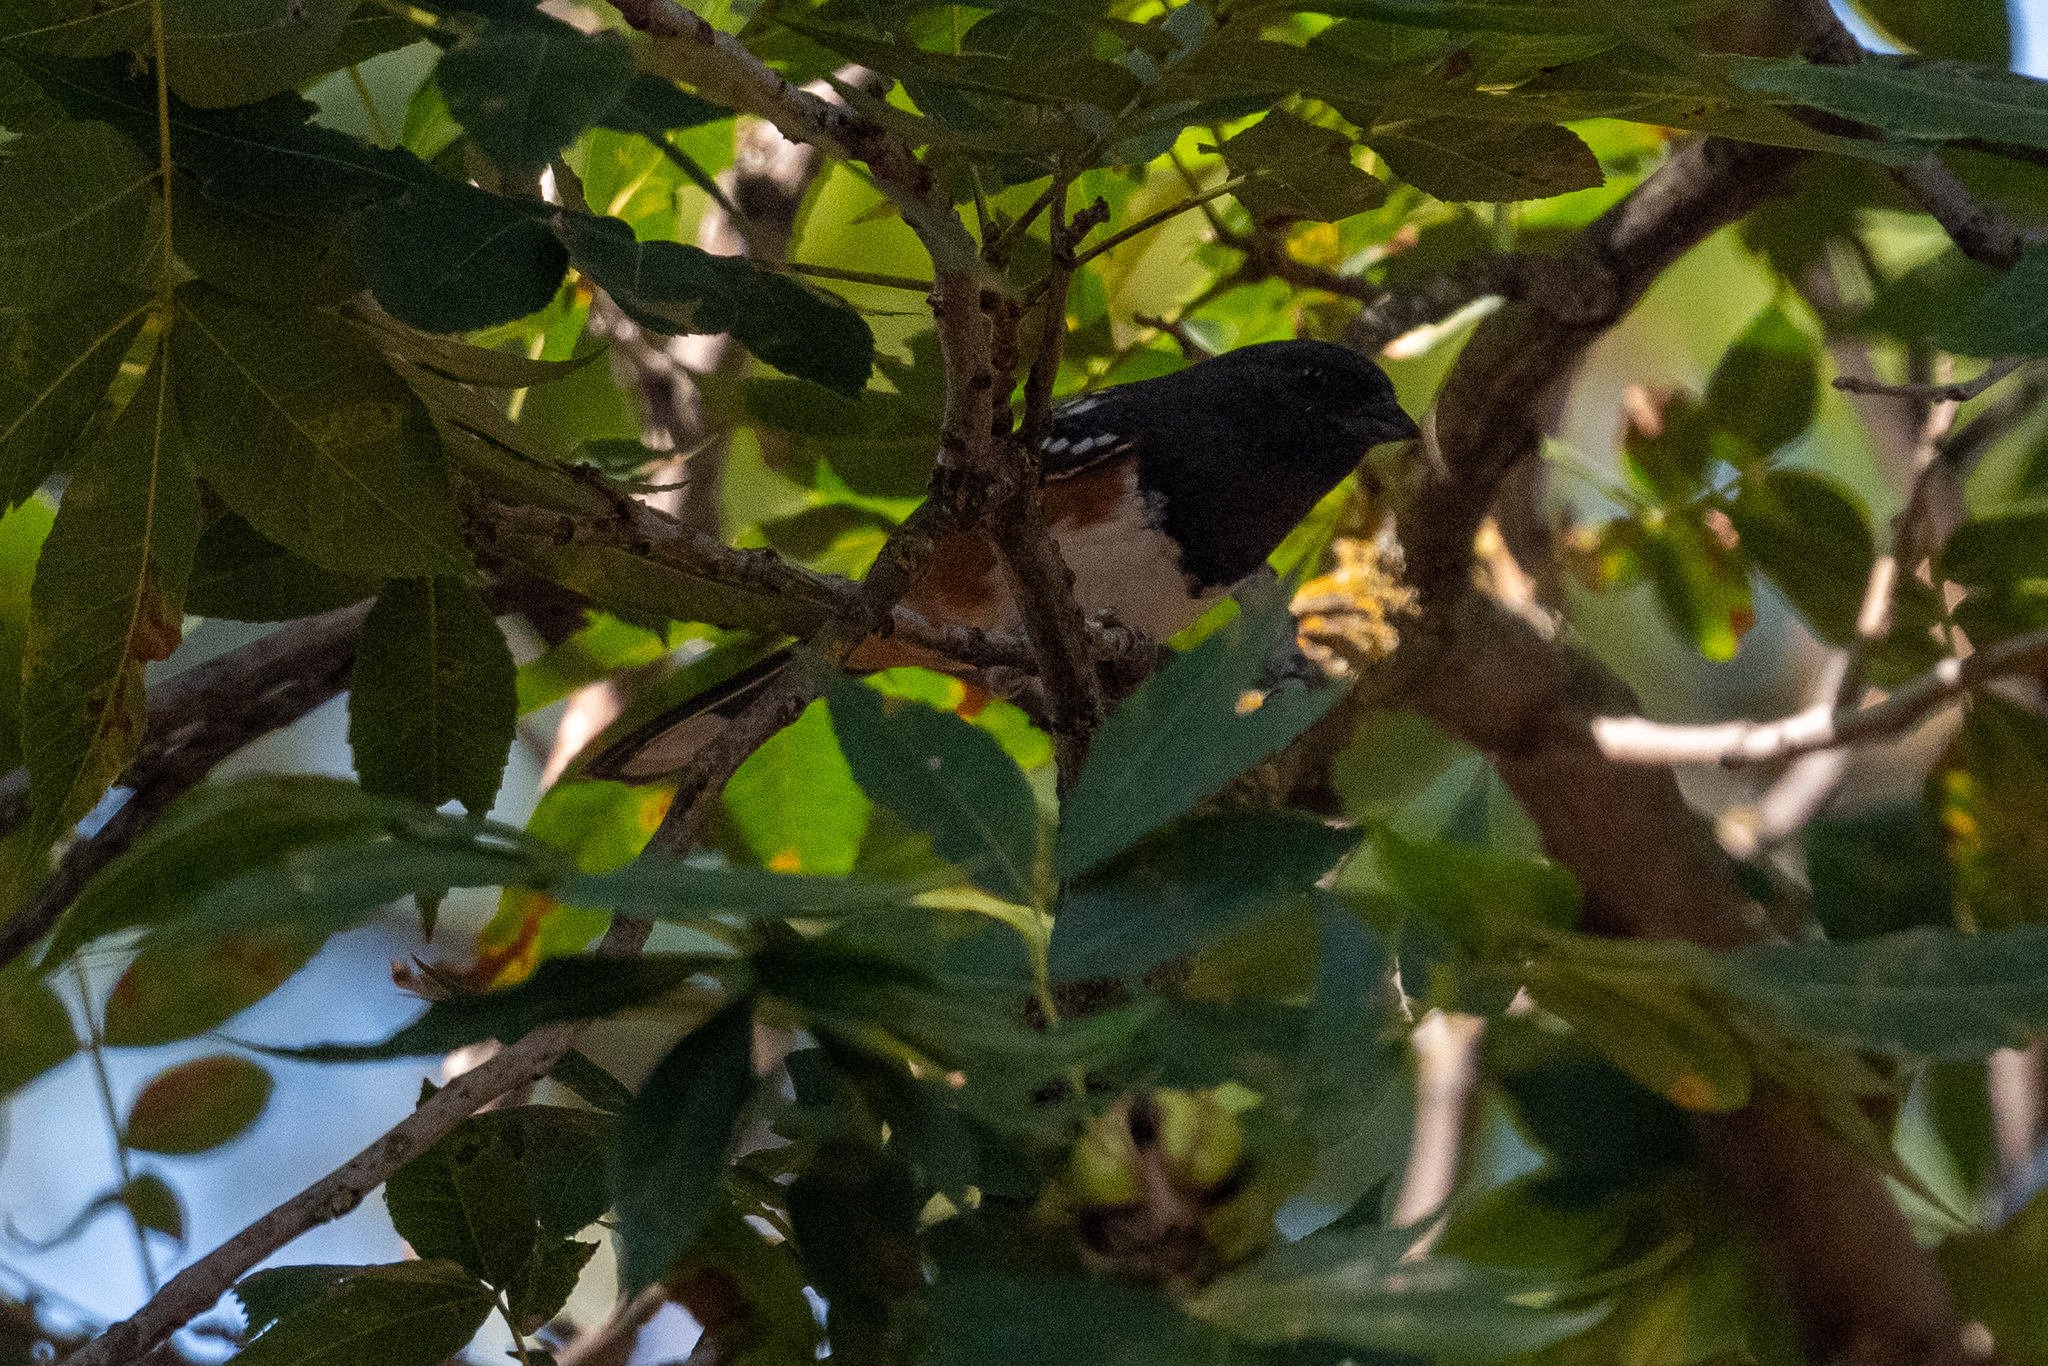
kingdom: Animalia
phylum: Chordata
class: Aves
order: Passeriformes
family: Passerellidae
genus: Pipilo
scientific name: Pipilo maculatus
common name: Spotted towhee
